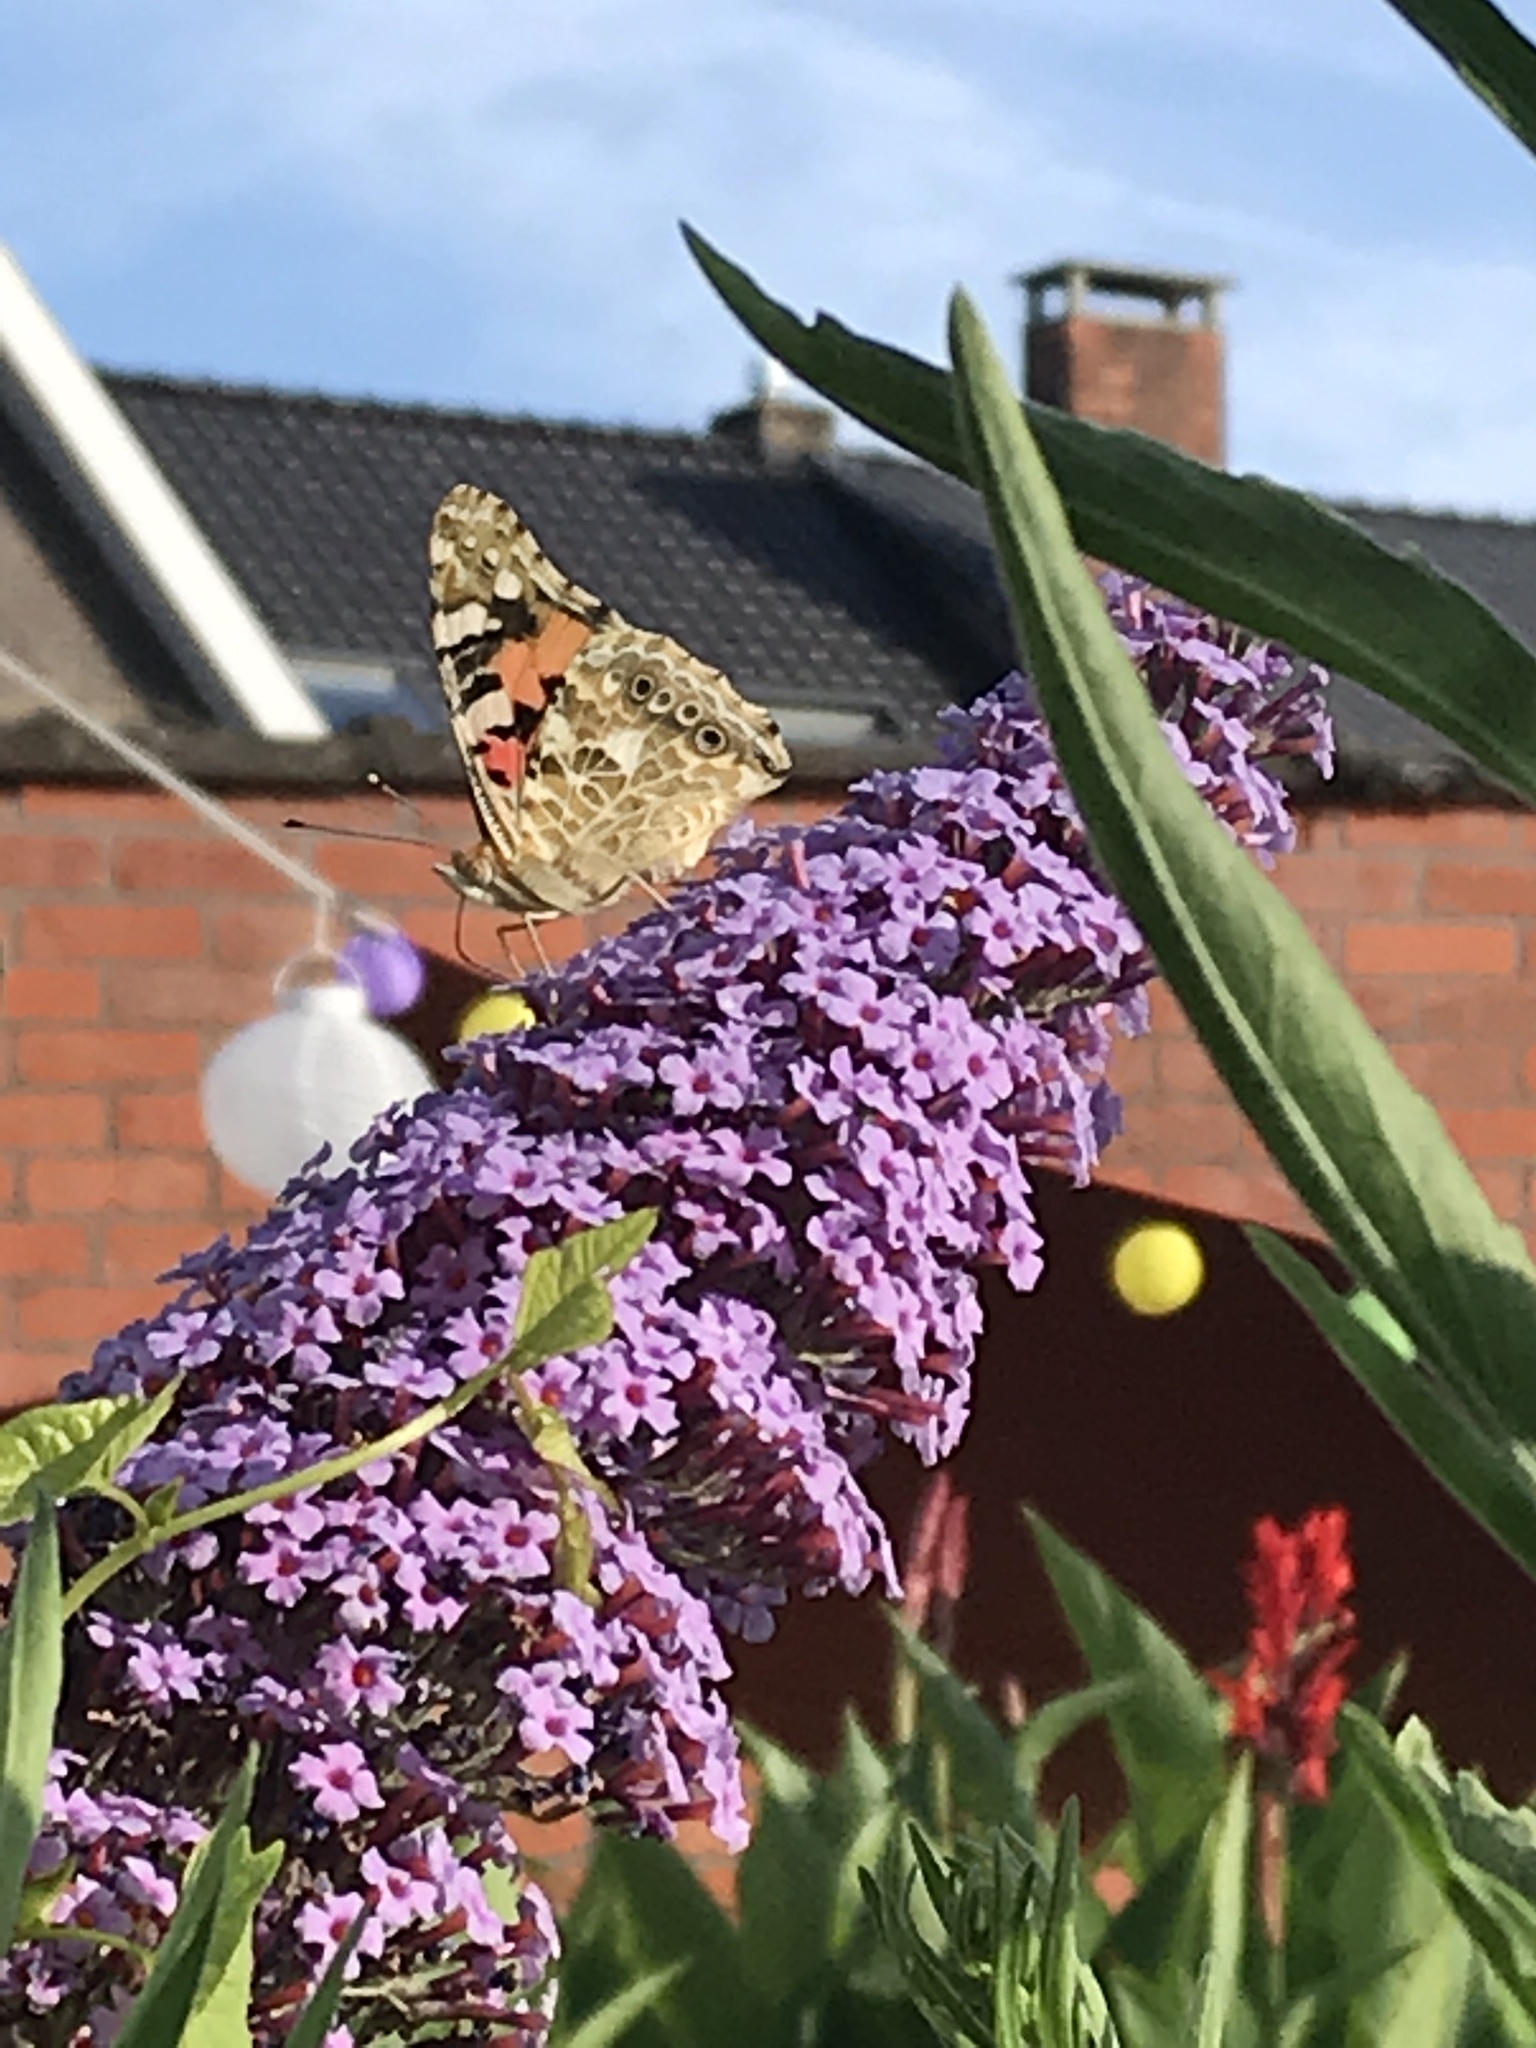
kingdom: Animalia
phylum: Arthropoda
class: Insecta
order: Lepidoptera
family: Nymphalidae
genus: Vanessa
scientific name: Vanessa cardui
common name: Painted lady
